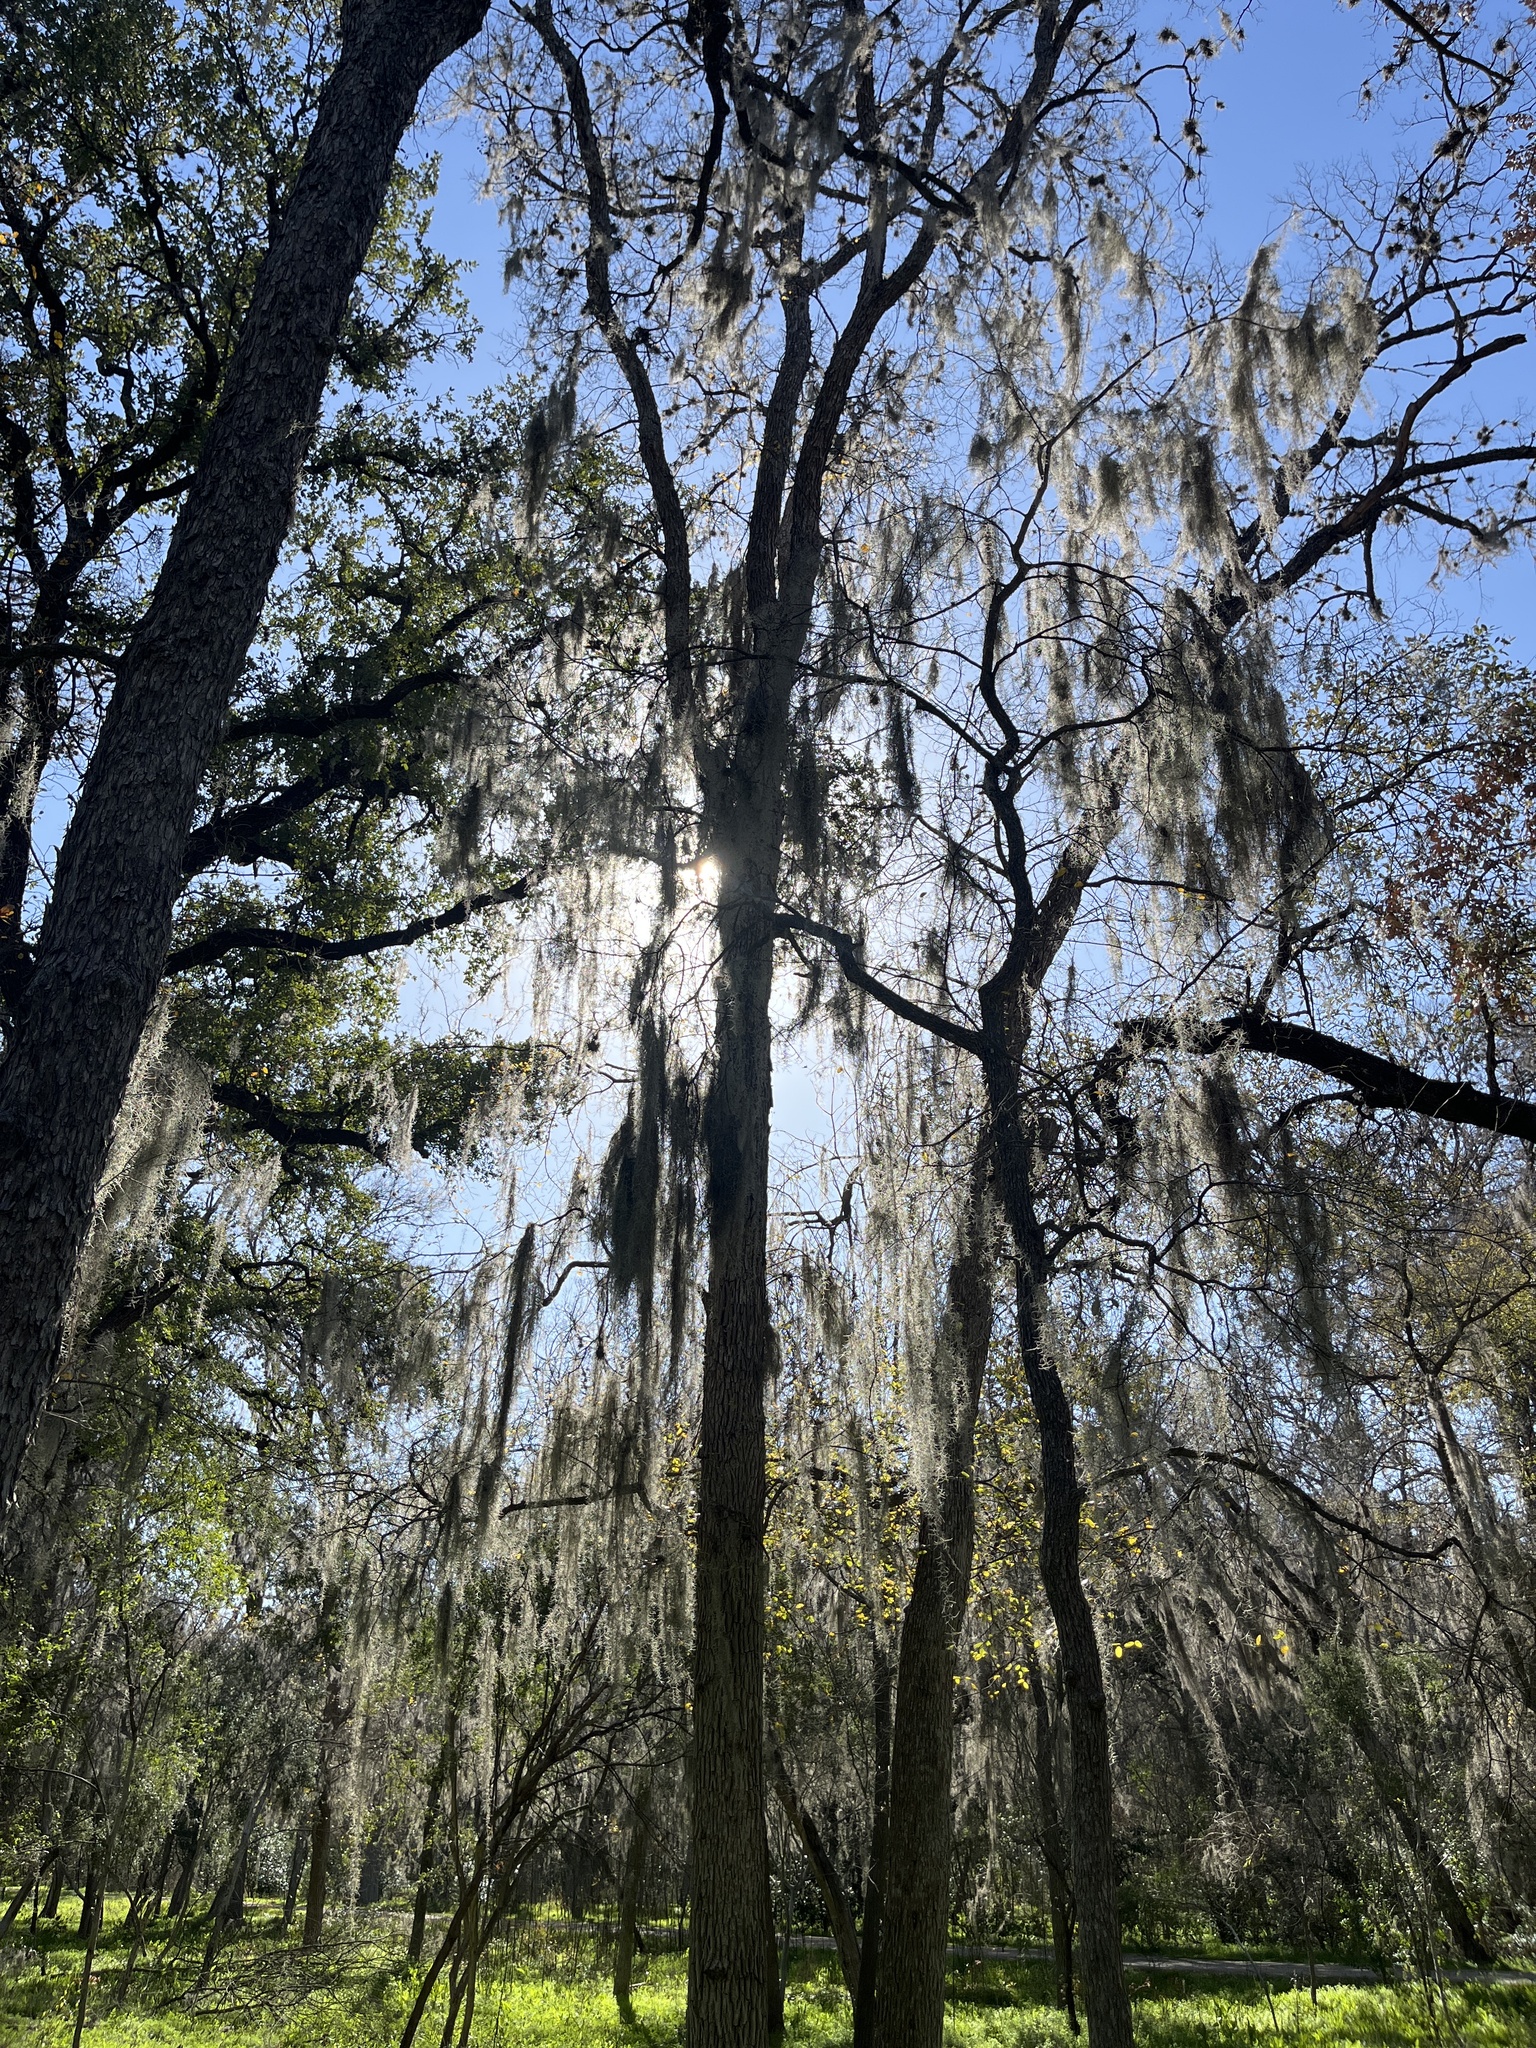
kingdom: Plantae
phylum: Tracheophyta
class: Liliopsida
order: Poales
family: Bromeliaceae
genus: Tillandsia
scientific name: Tillandsia usneoides
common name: Spanish moss
